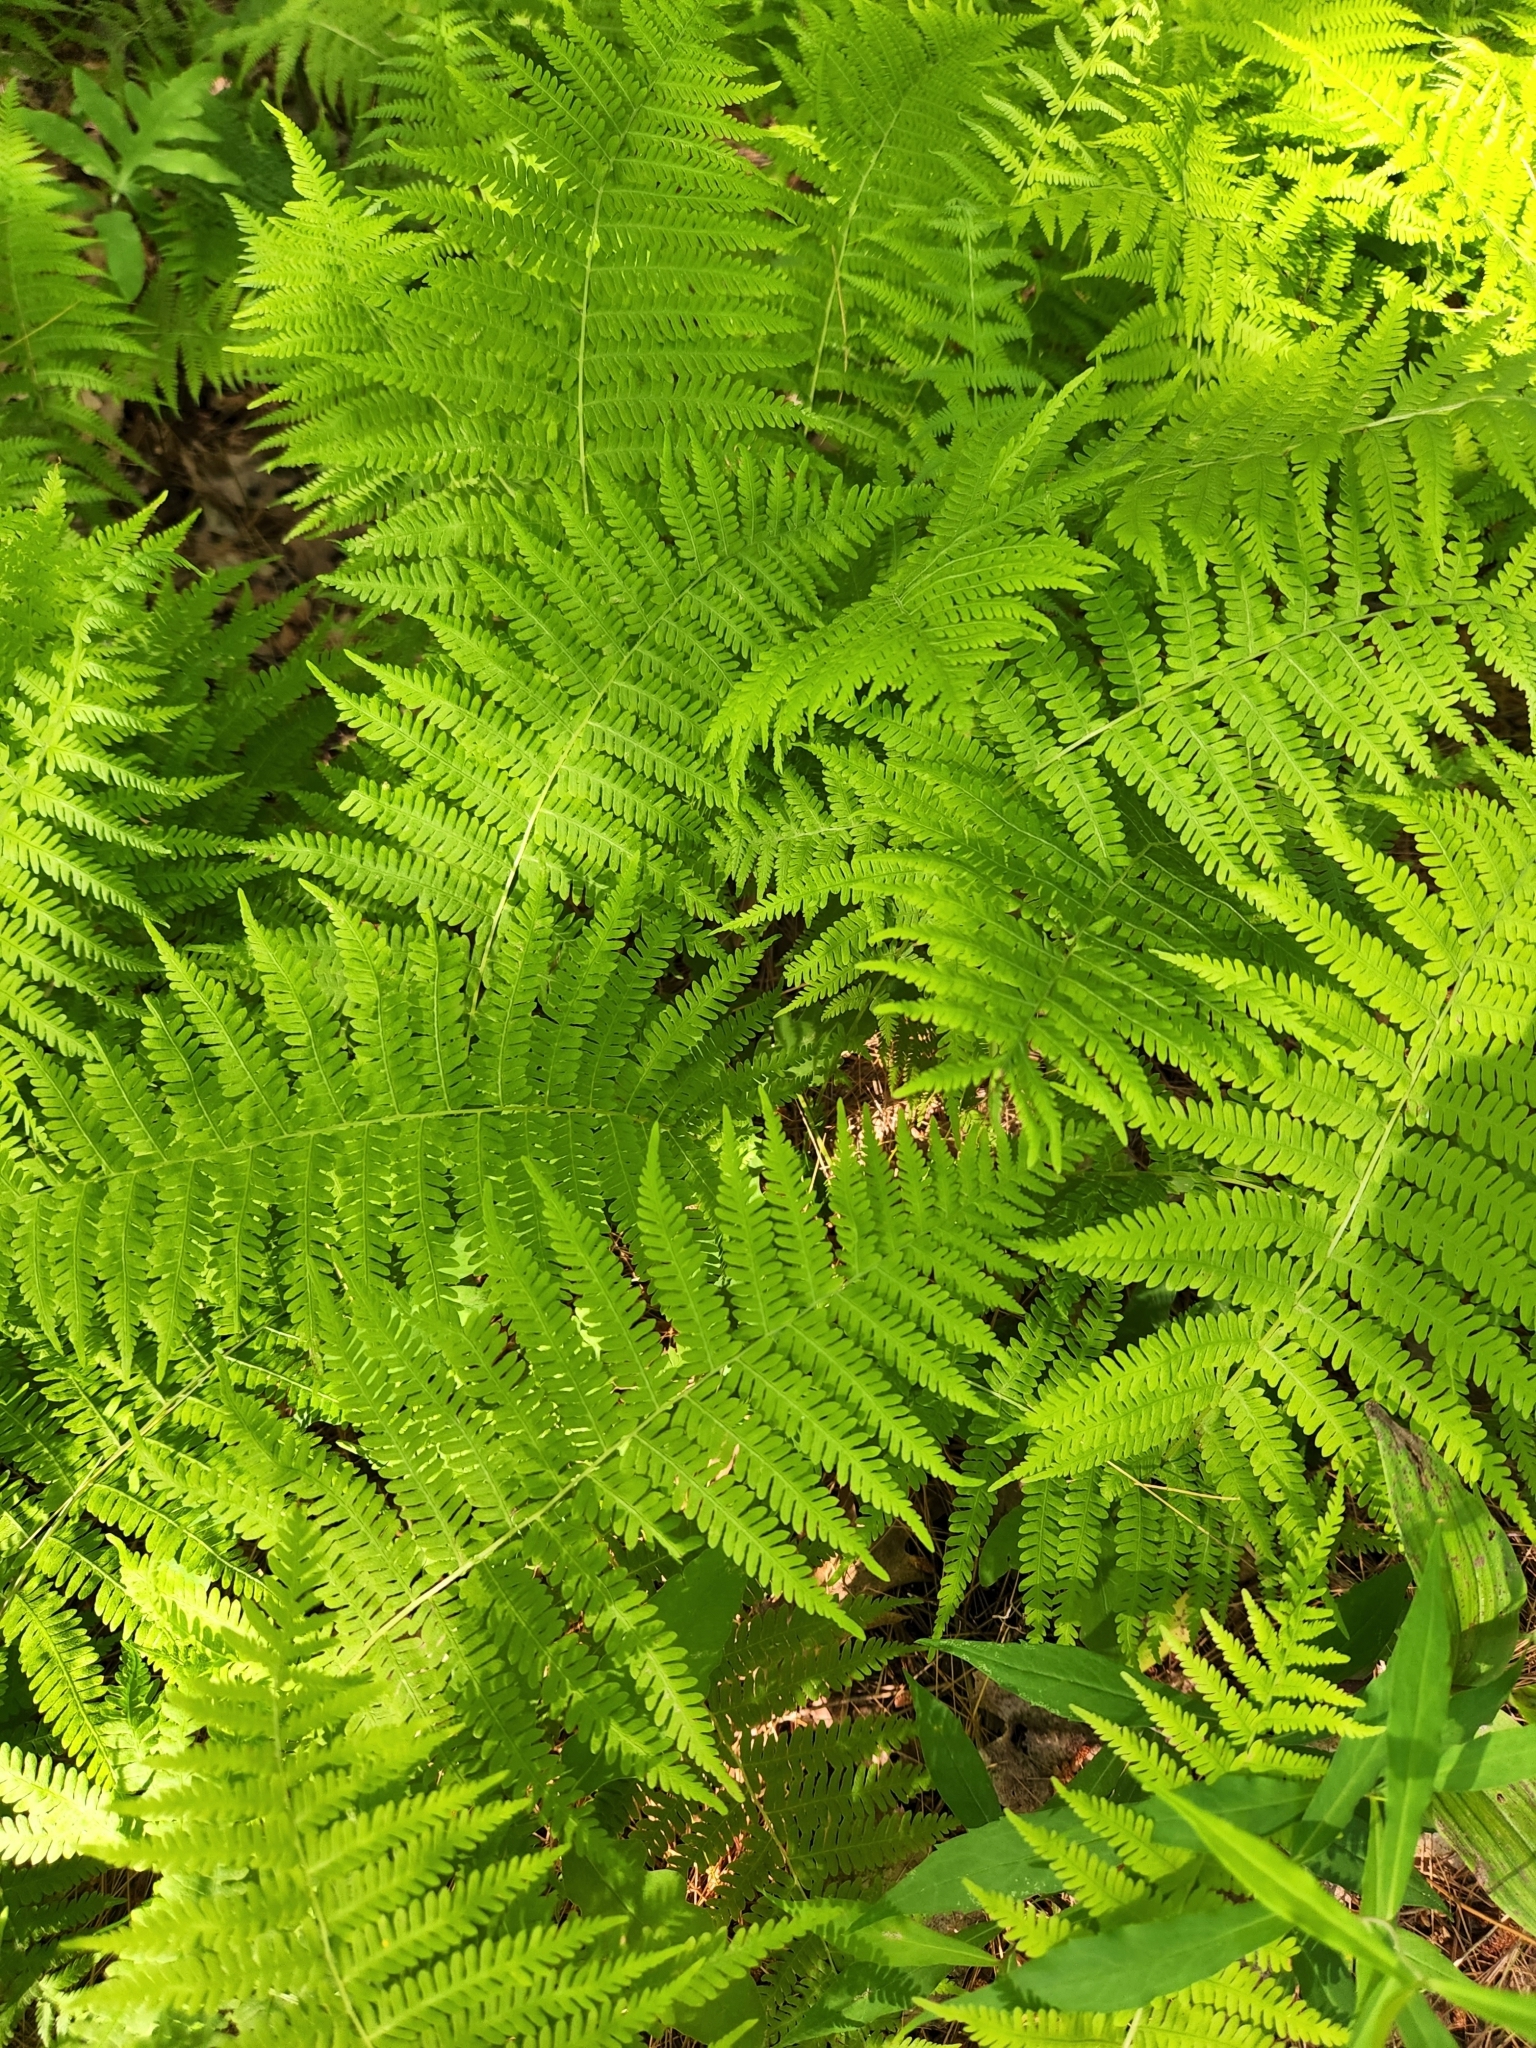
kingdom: Plantae
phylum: Tracheophyta
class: Polypodiopsida
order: Polypodiales
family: Thelypteridaceae
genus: Amauropelta
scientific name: Amauropelta noveboracensis
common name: New york fern
